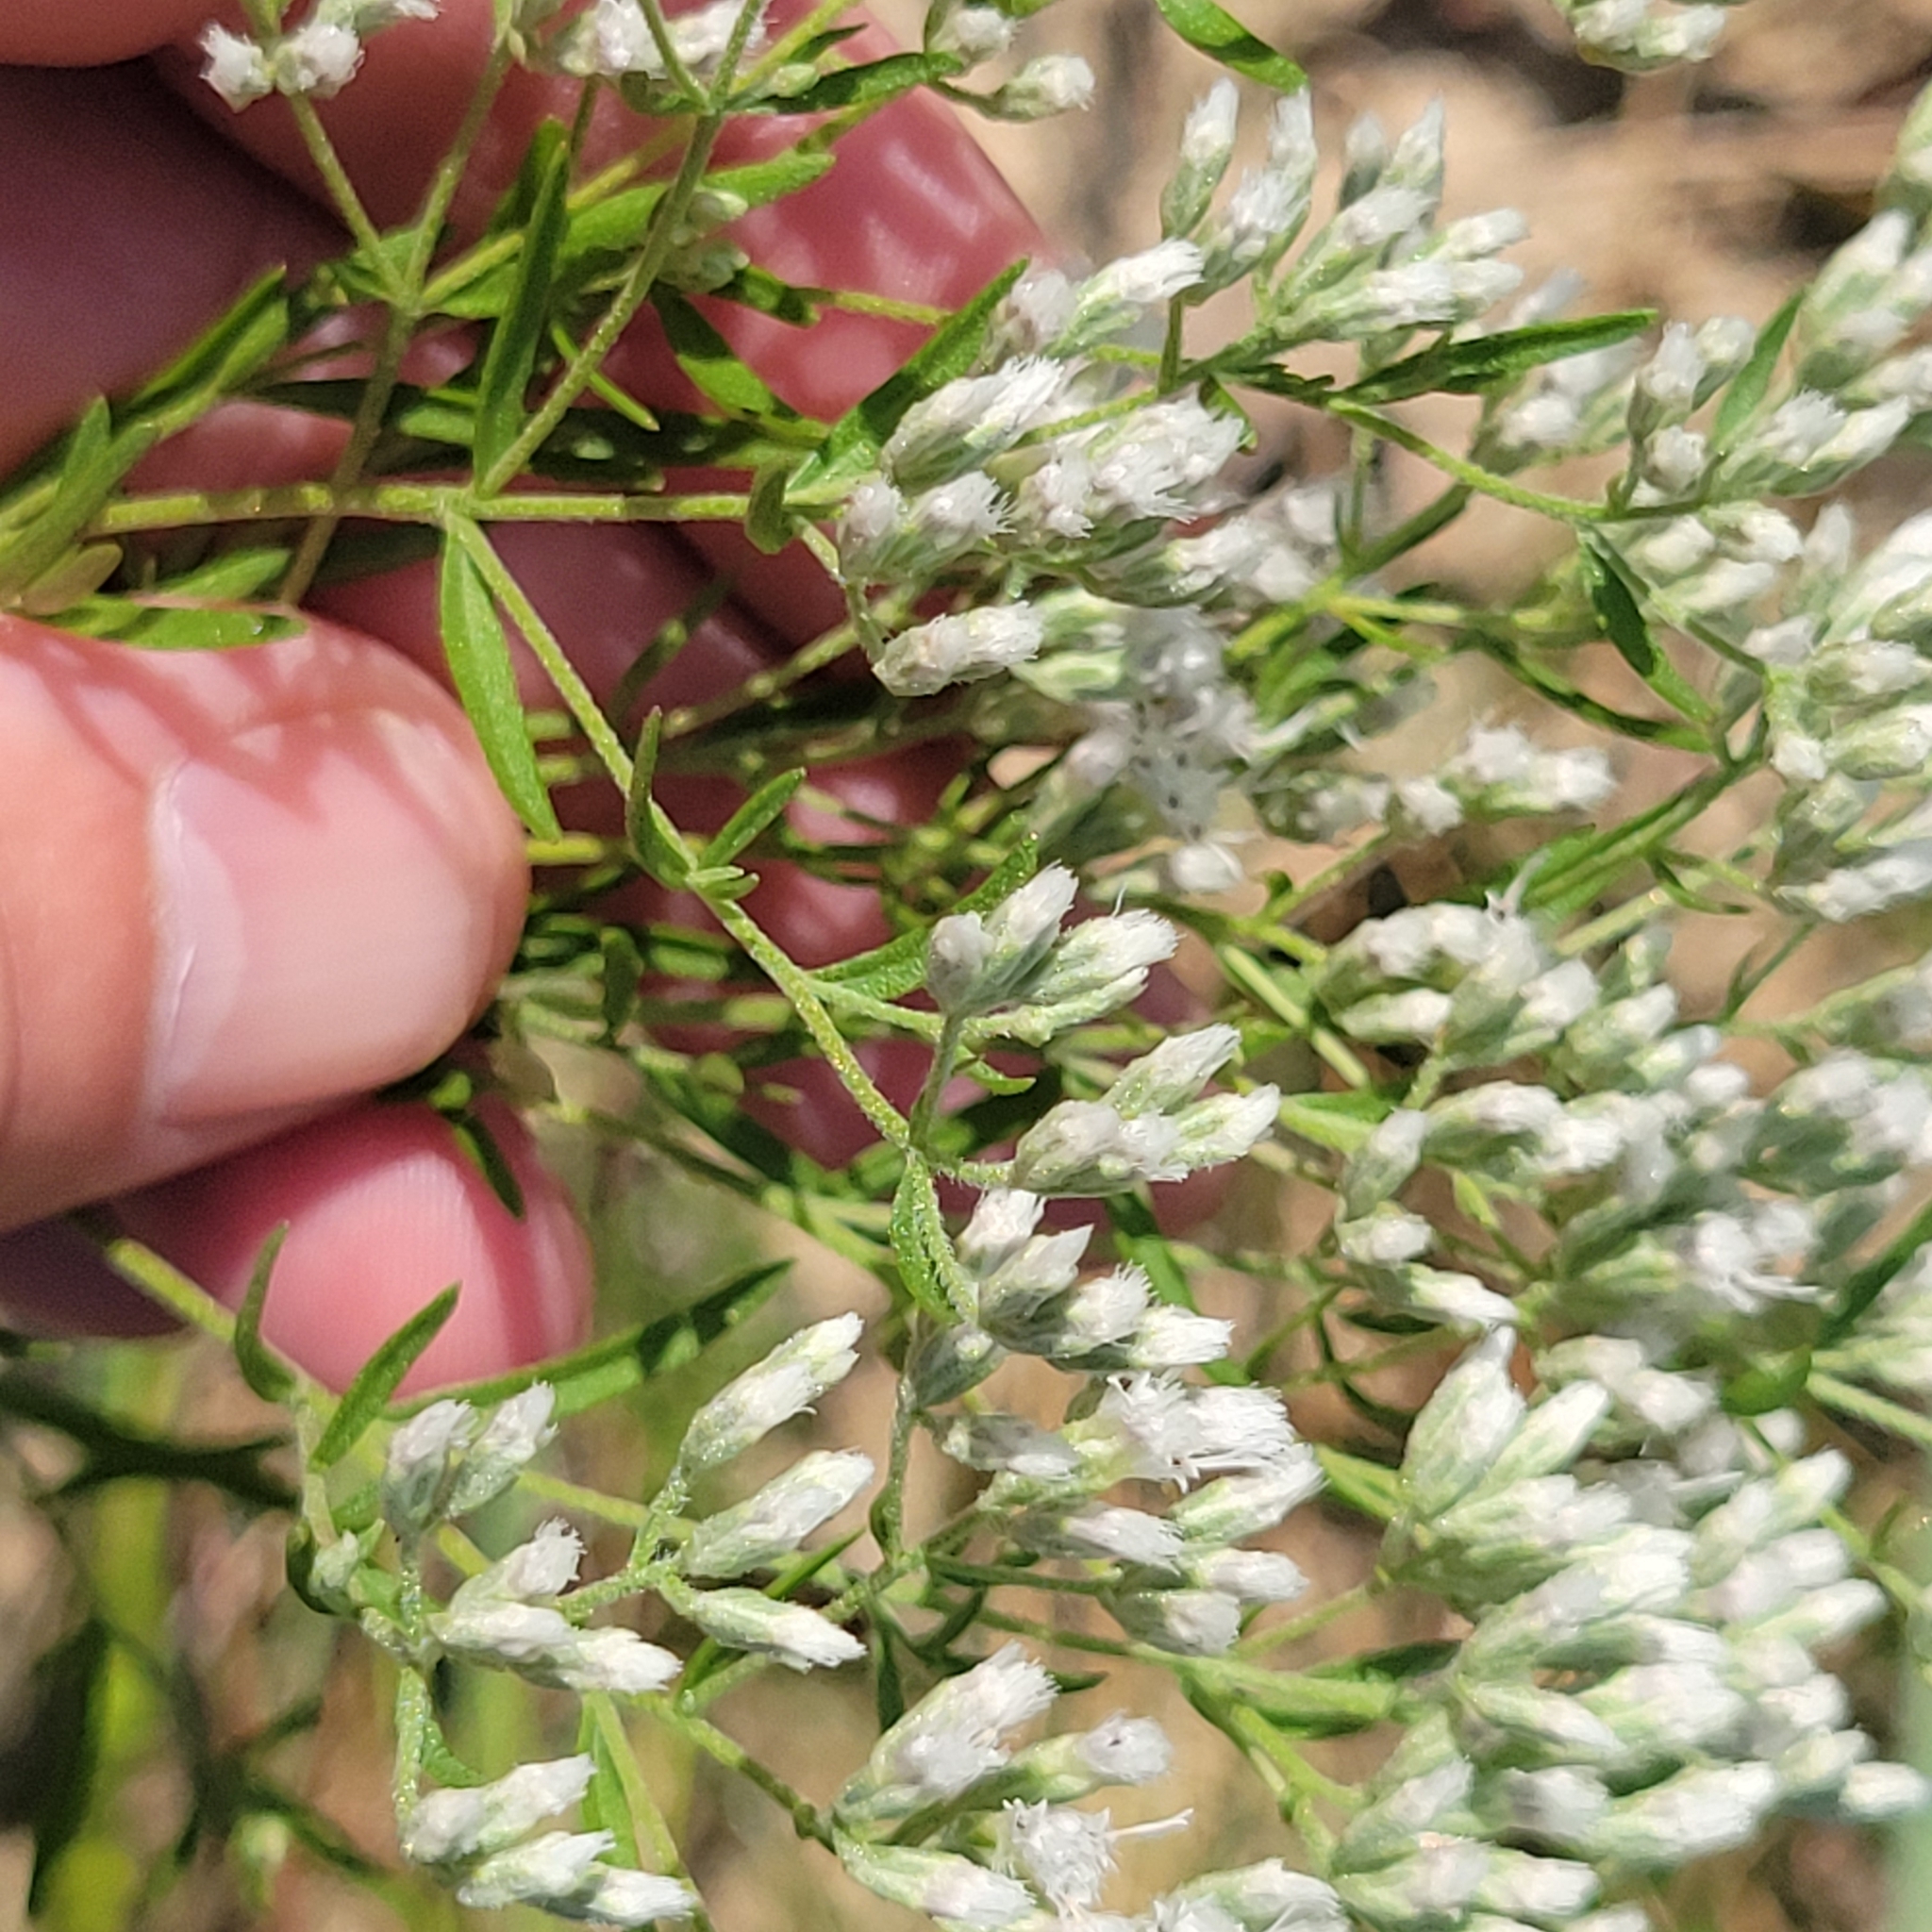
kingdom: Plantae
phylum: Tracheophyta
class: Magnoliopsida
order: Asterales
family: Asteraceae
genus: Eupatorium
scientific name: Eupatorium hyssopifolium
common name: Hyssop-leaf thoroughwort
